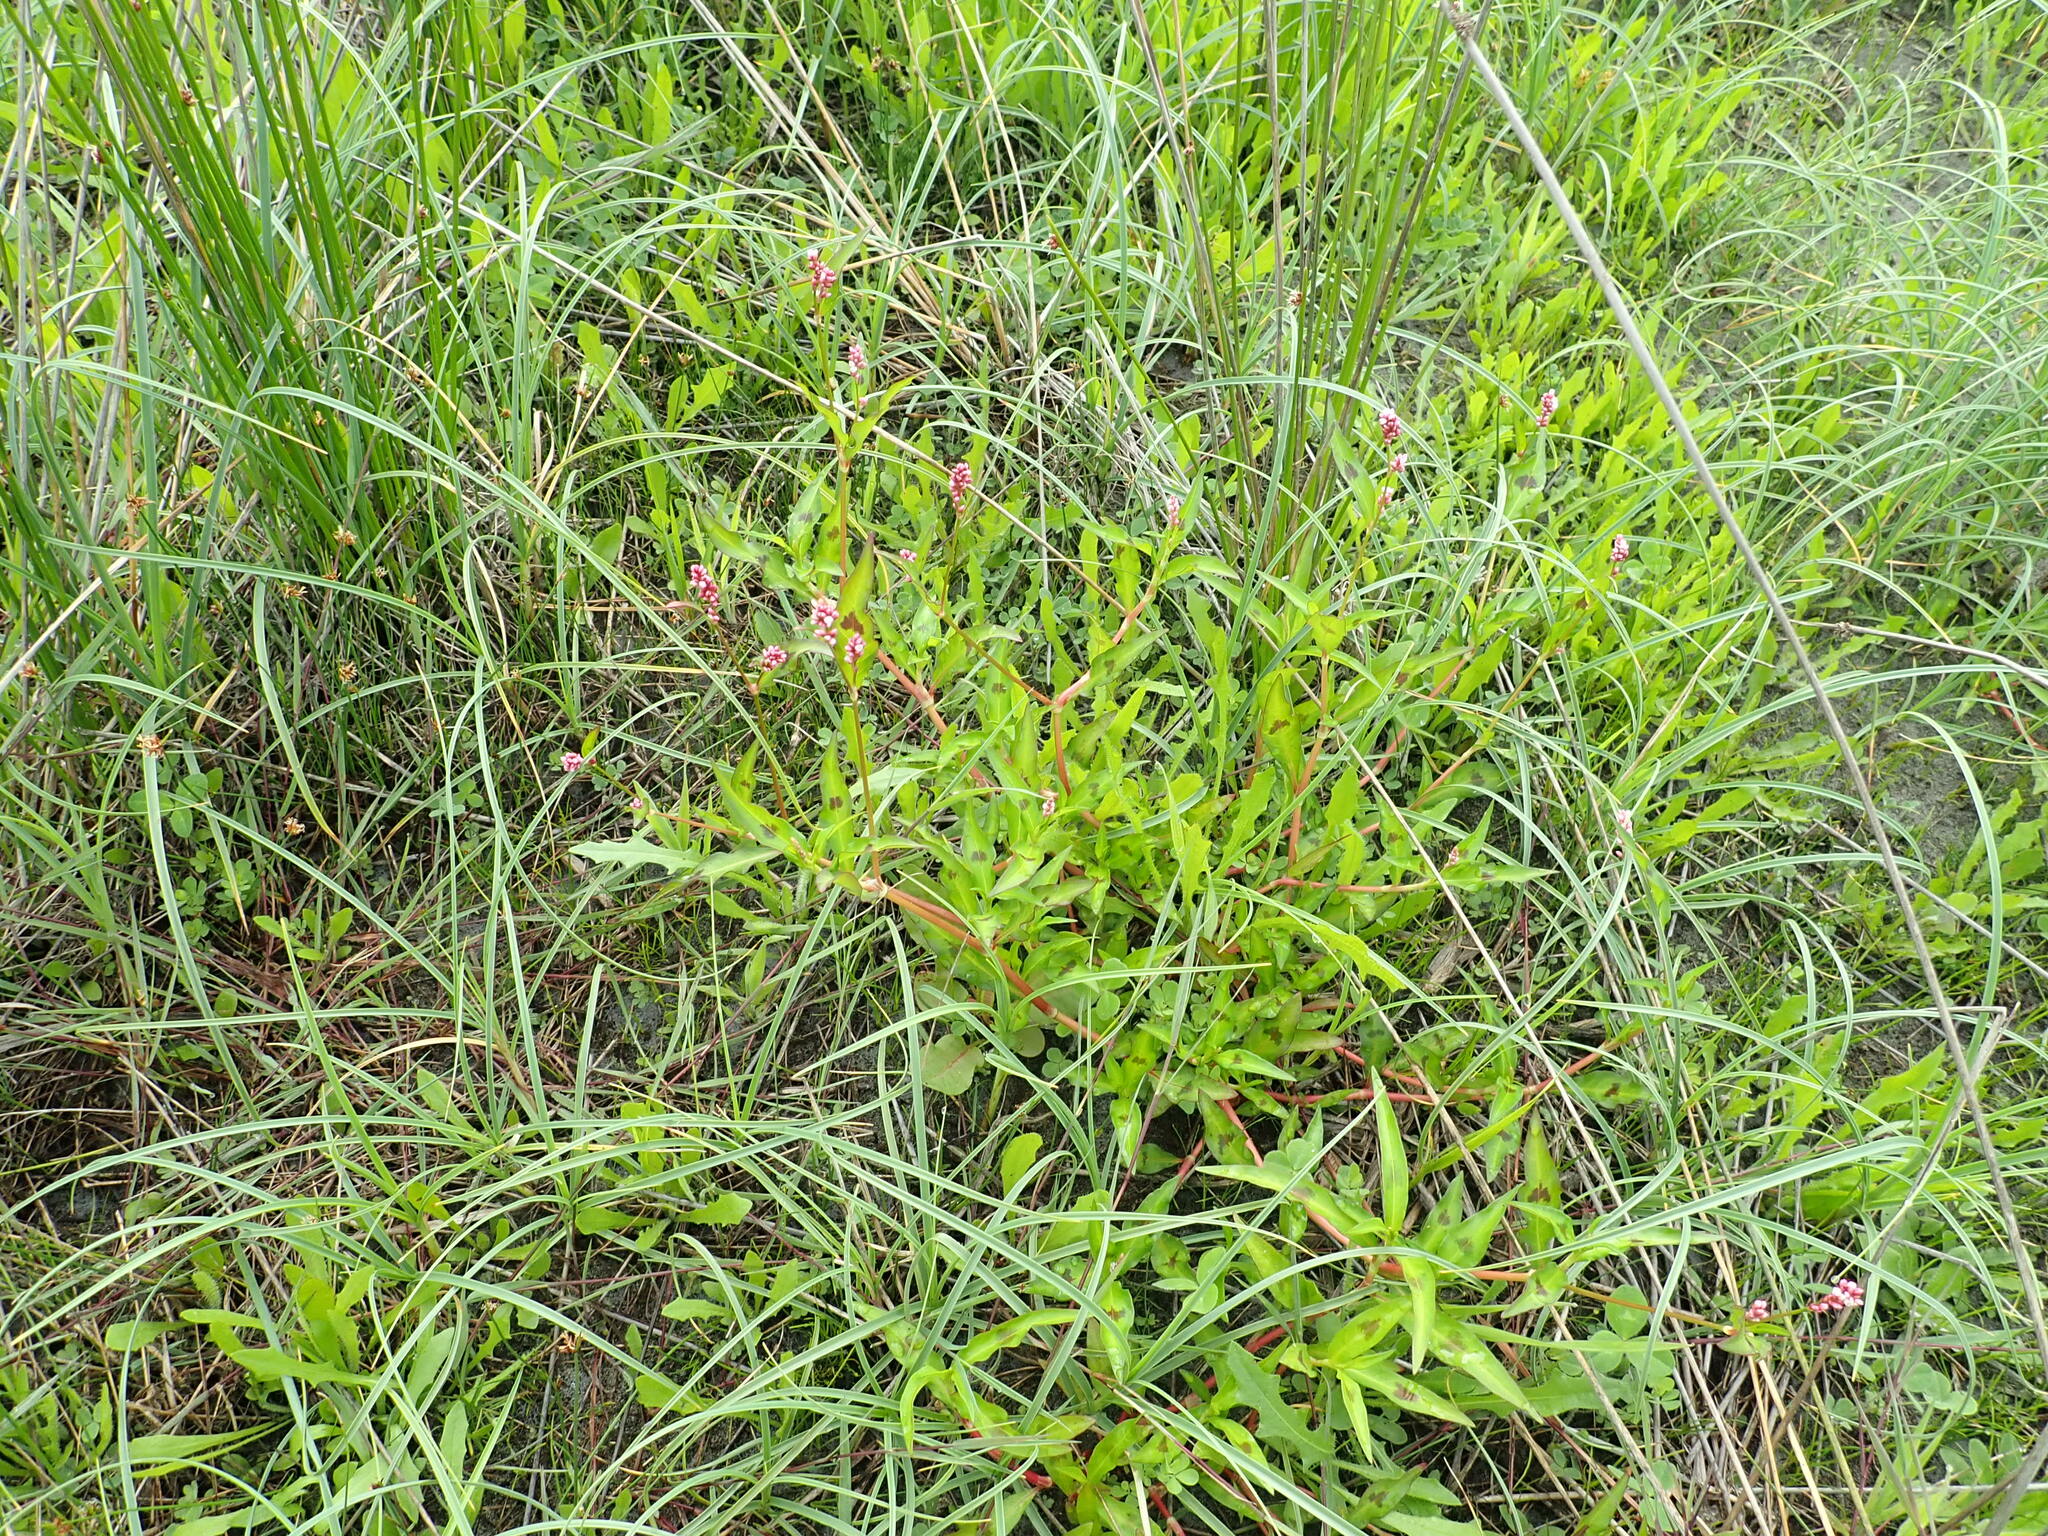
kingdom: Plantae
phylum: Tracheophyta
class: Magnoliopsida
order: Caryophyllales
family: Polygonaceae
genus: Persicaria
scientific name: Persicaria maculosa
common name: Redshank
